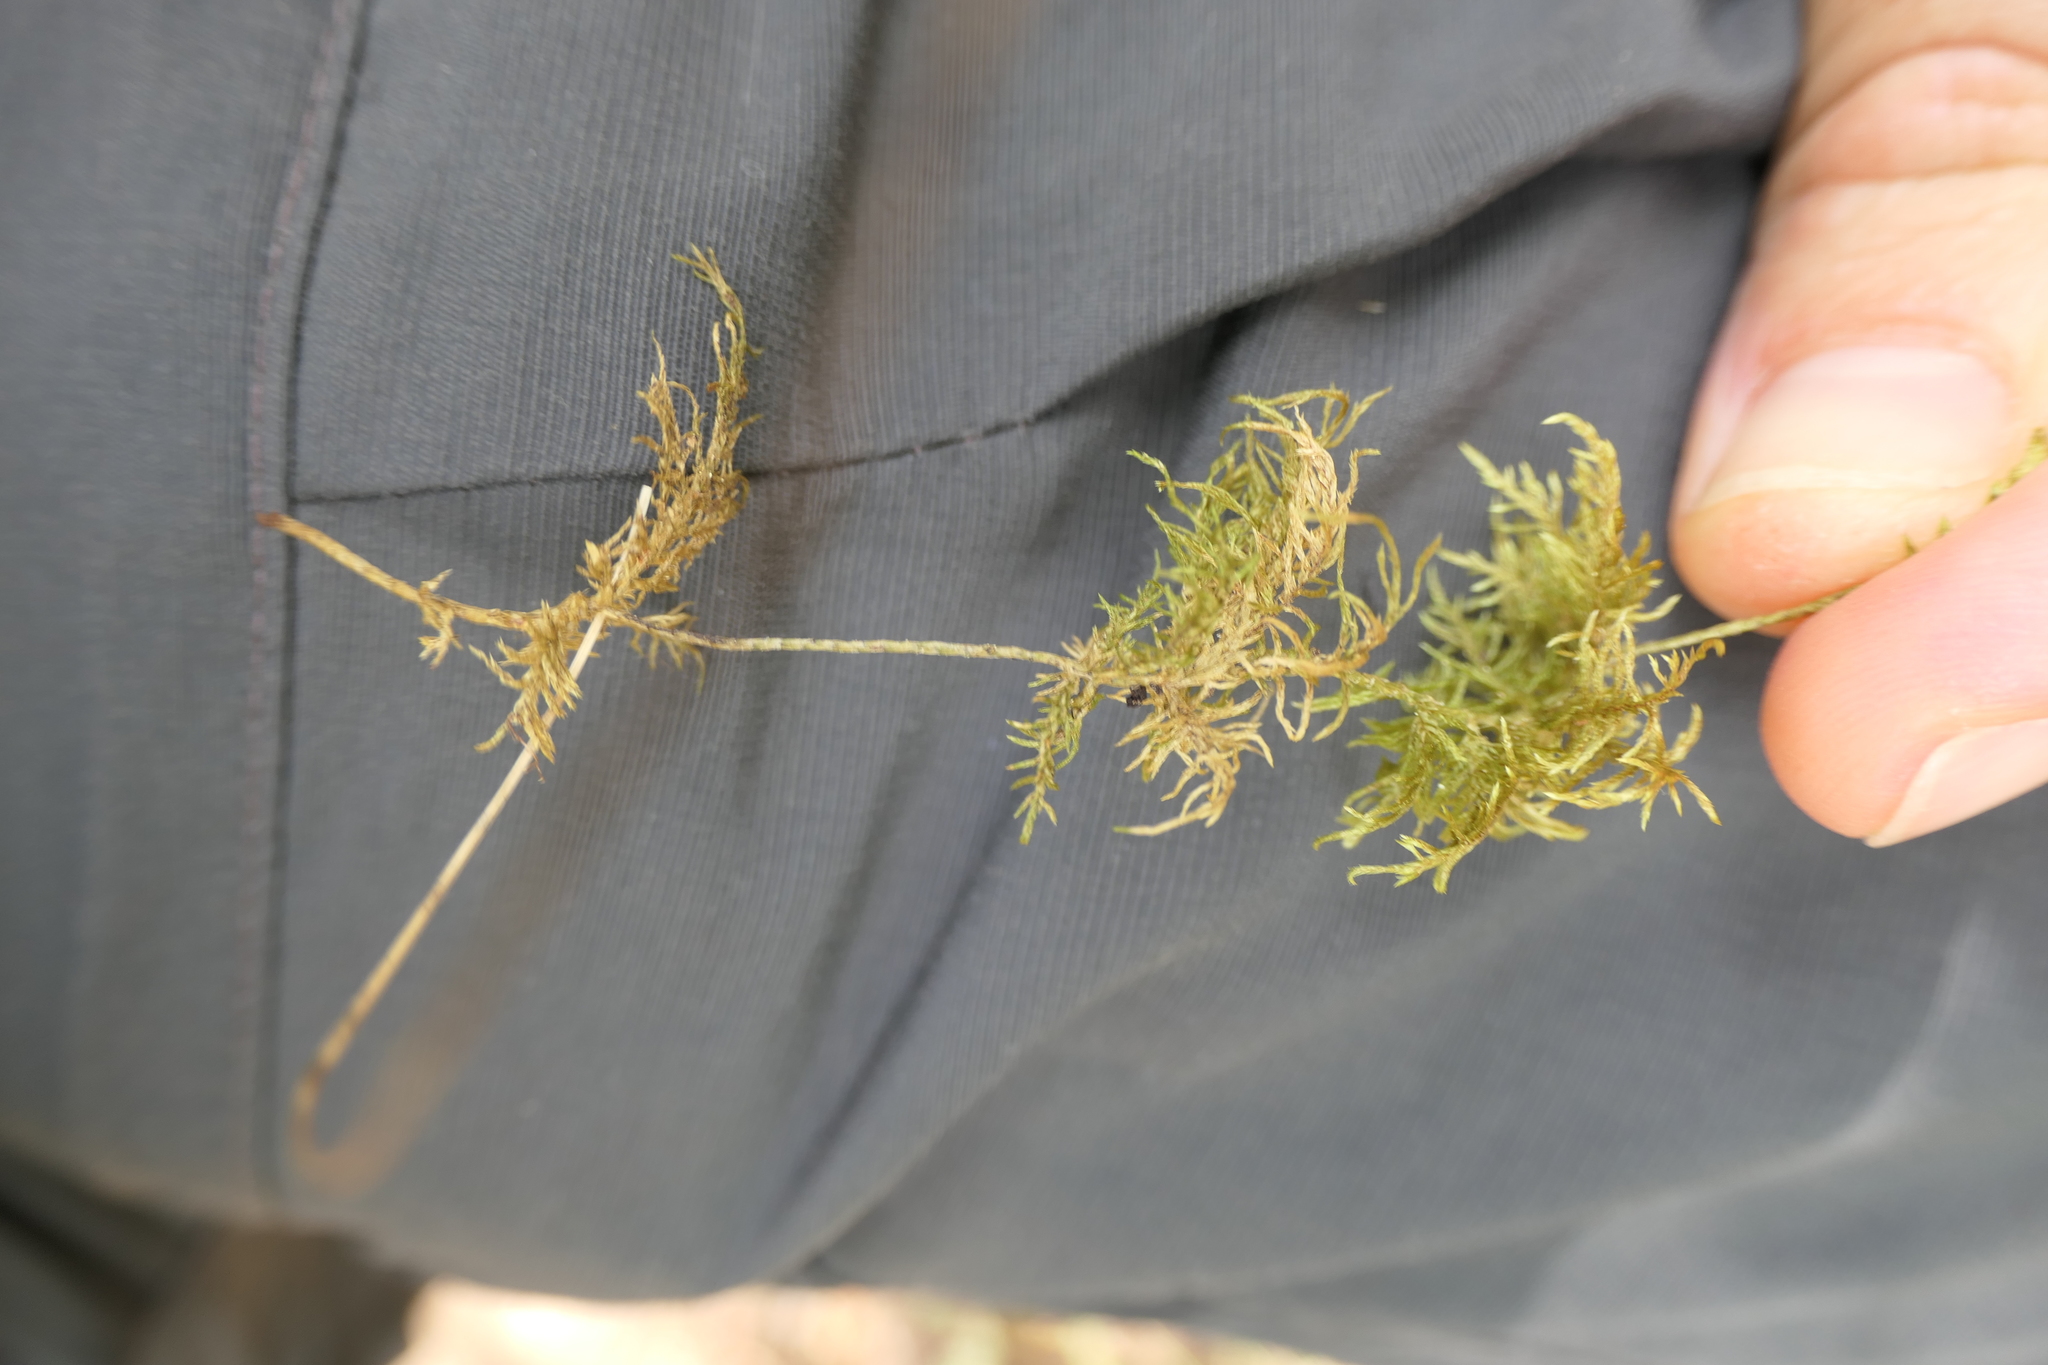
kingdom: Plantae
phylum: Bryophyta
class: Bryopsida
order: Hypnales
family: Hylocomiaceae
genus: Hylocomium
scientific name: Hylocomium splendens
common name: Stairstep moss
